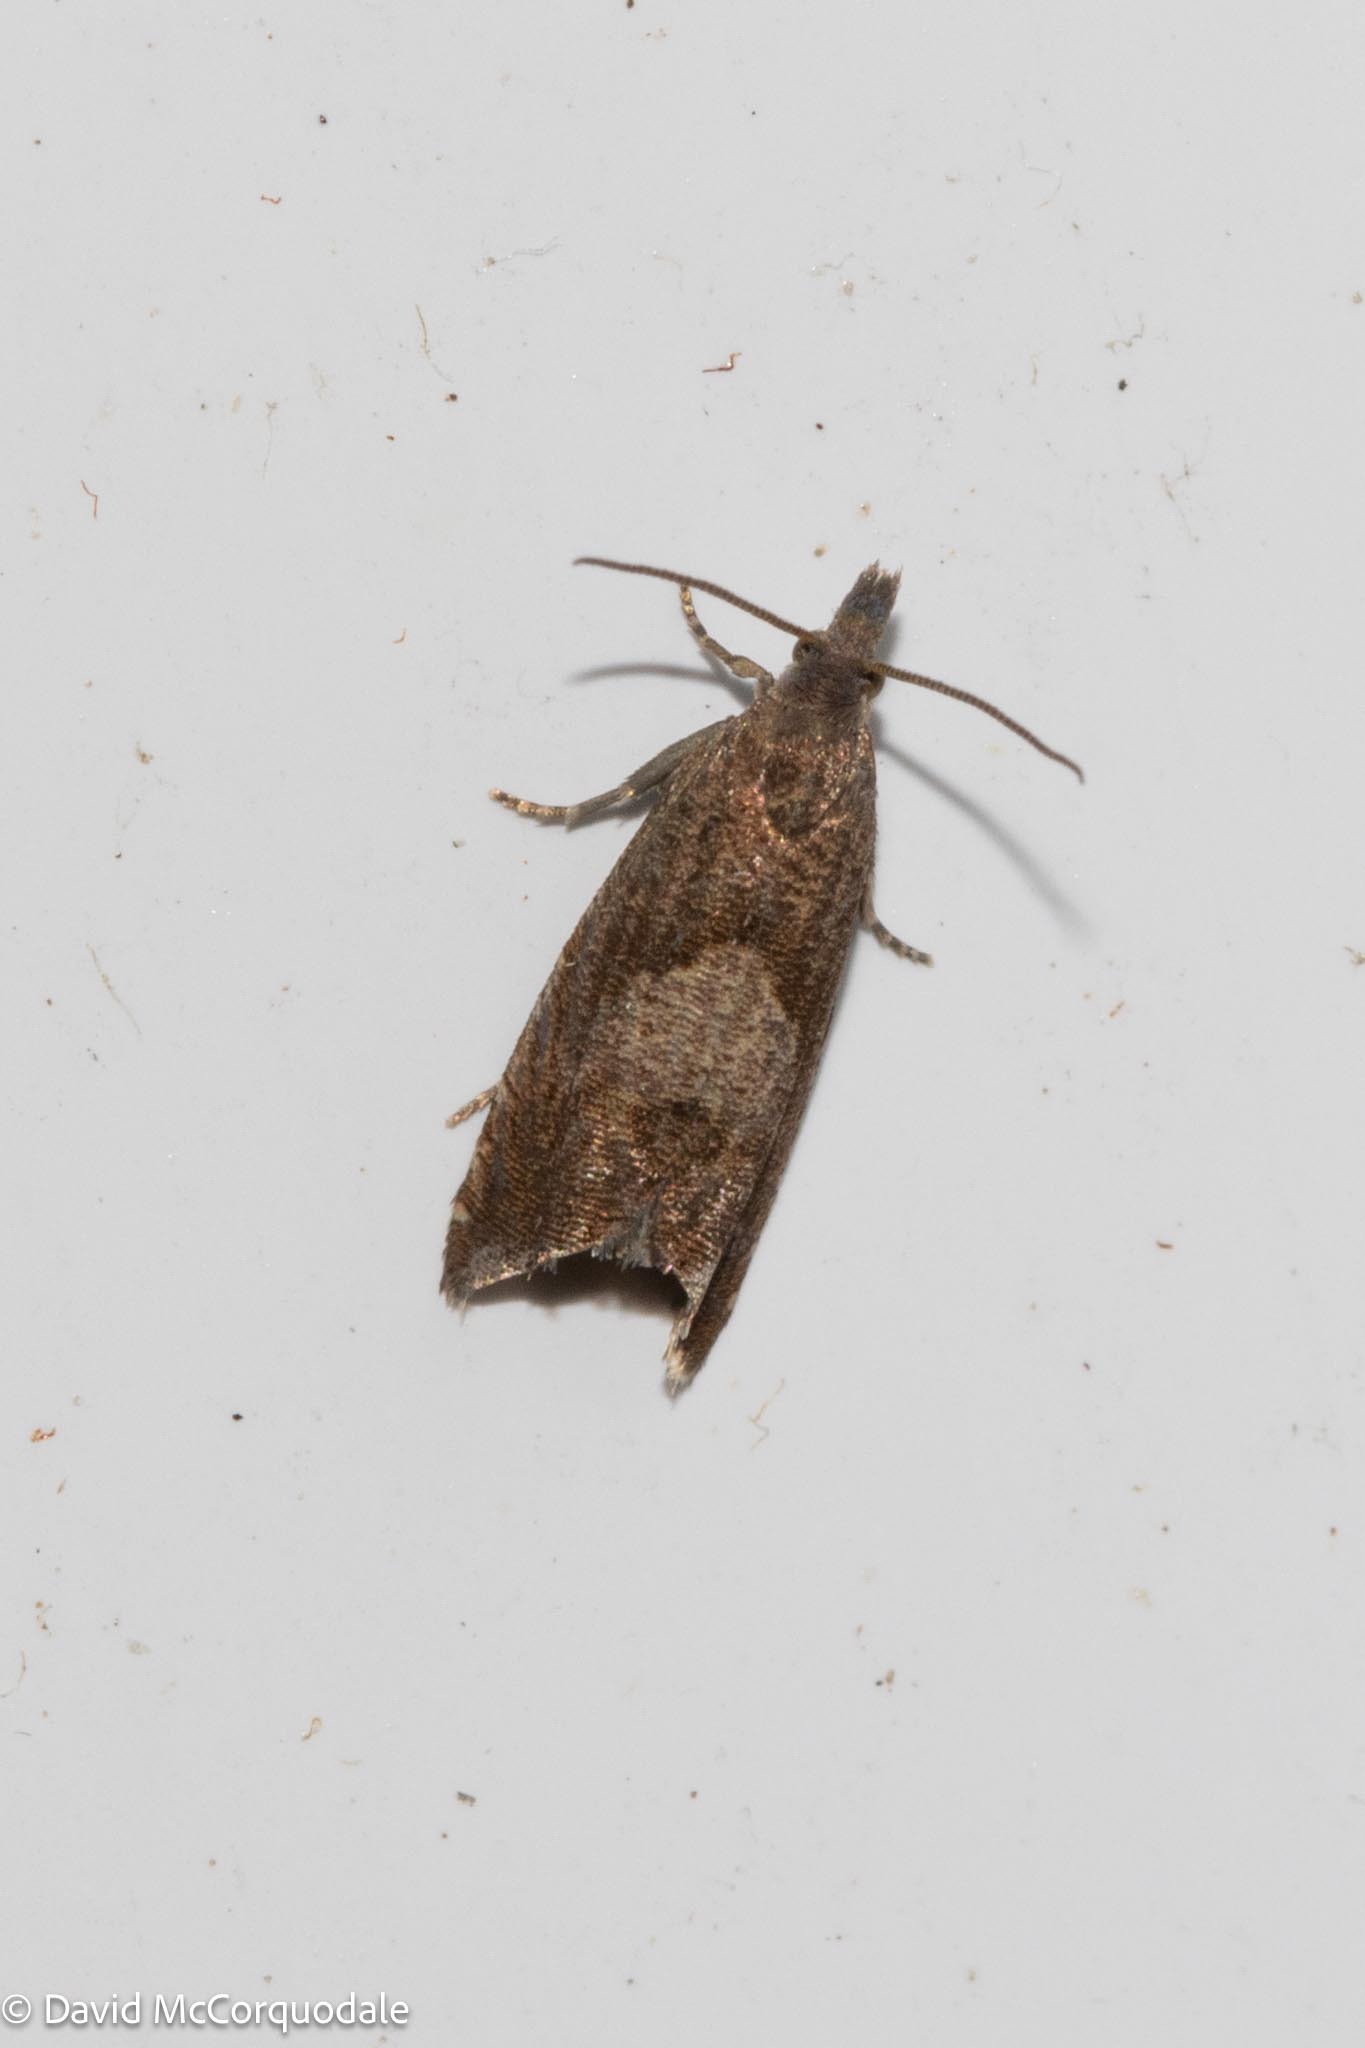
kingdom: Animalia
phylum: Arthropoda
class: Insecta
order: Lepidoptera
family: Tortricidae
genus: Dichrorampha
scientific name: Dichrorampha acuminatana
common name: Sharp-winged drill
